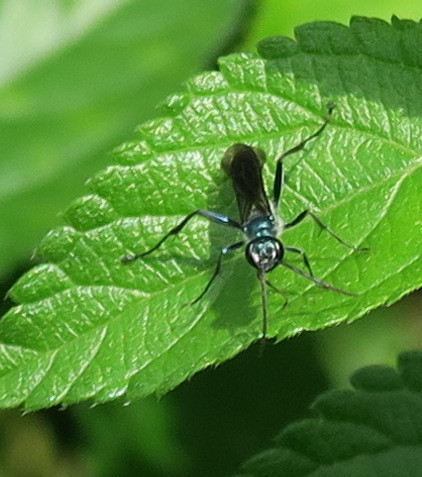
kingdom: Animalia
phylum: Arthropoda
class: Insecta
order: Hymenoptera
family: Sphecidae
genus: Chalybion
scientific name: Chalybion japonicum
